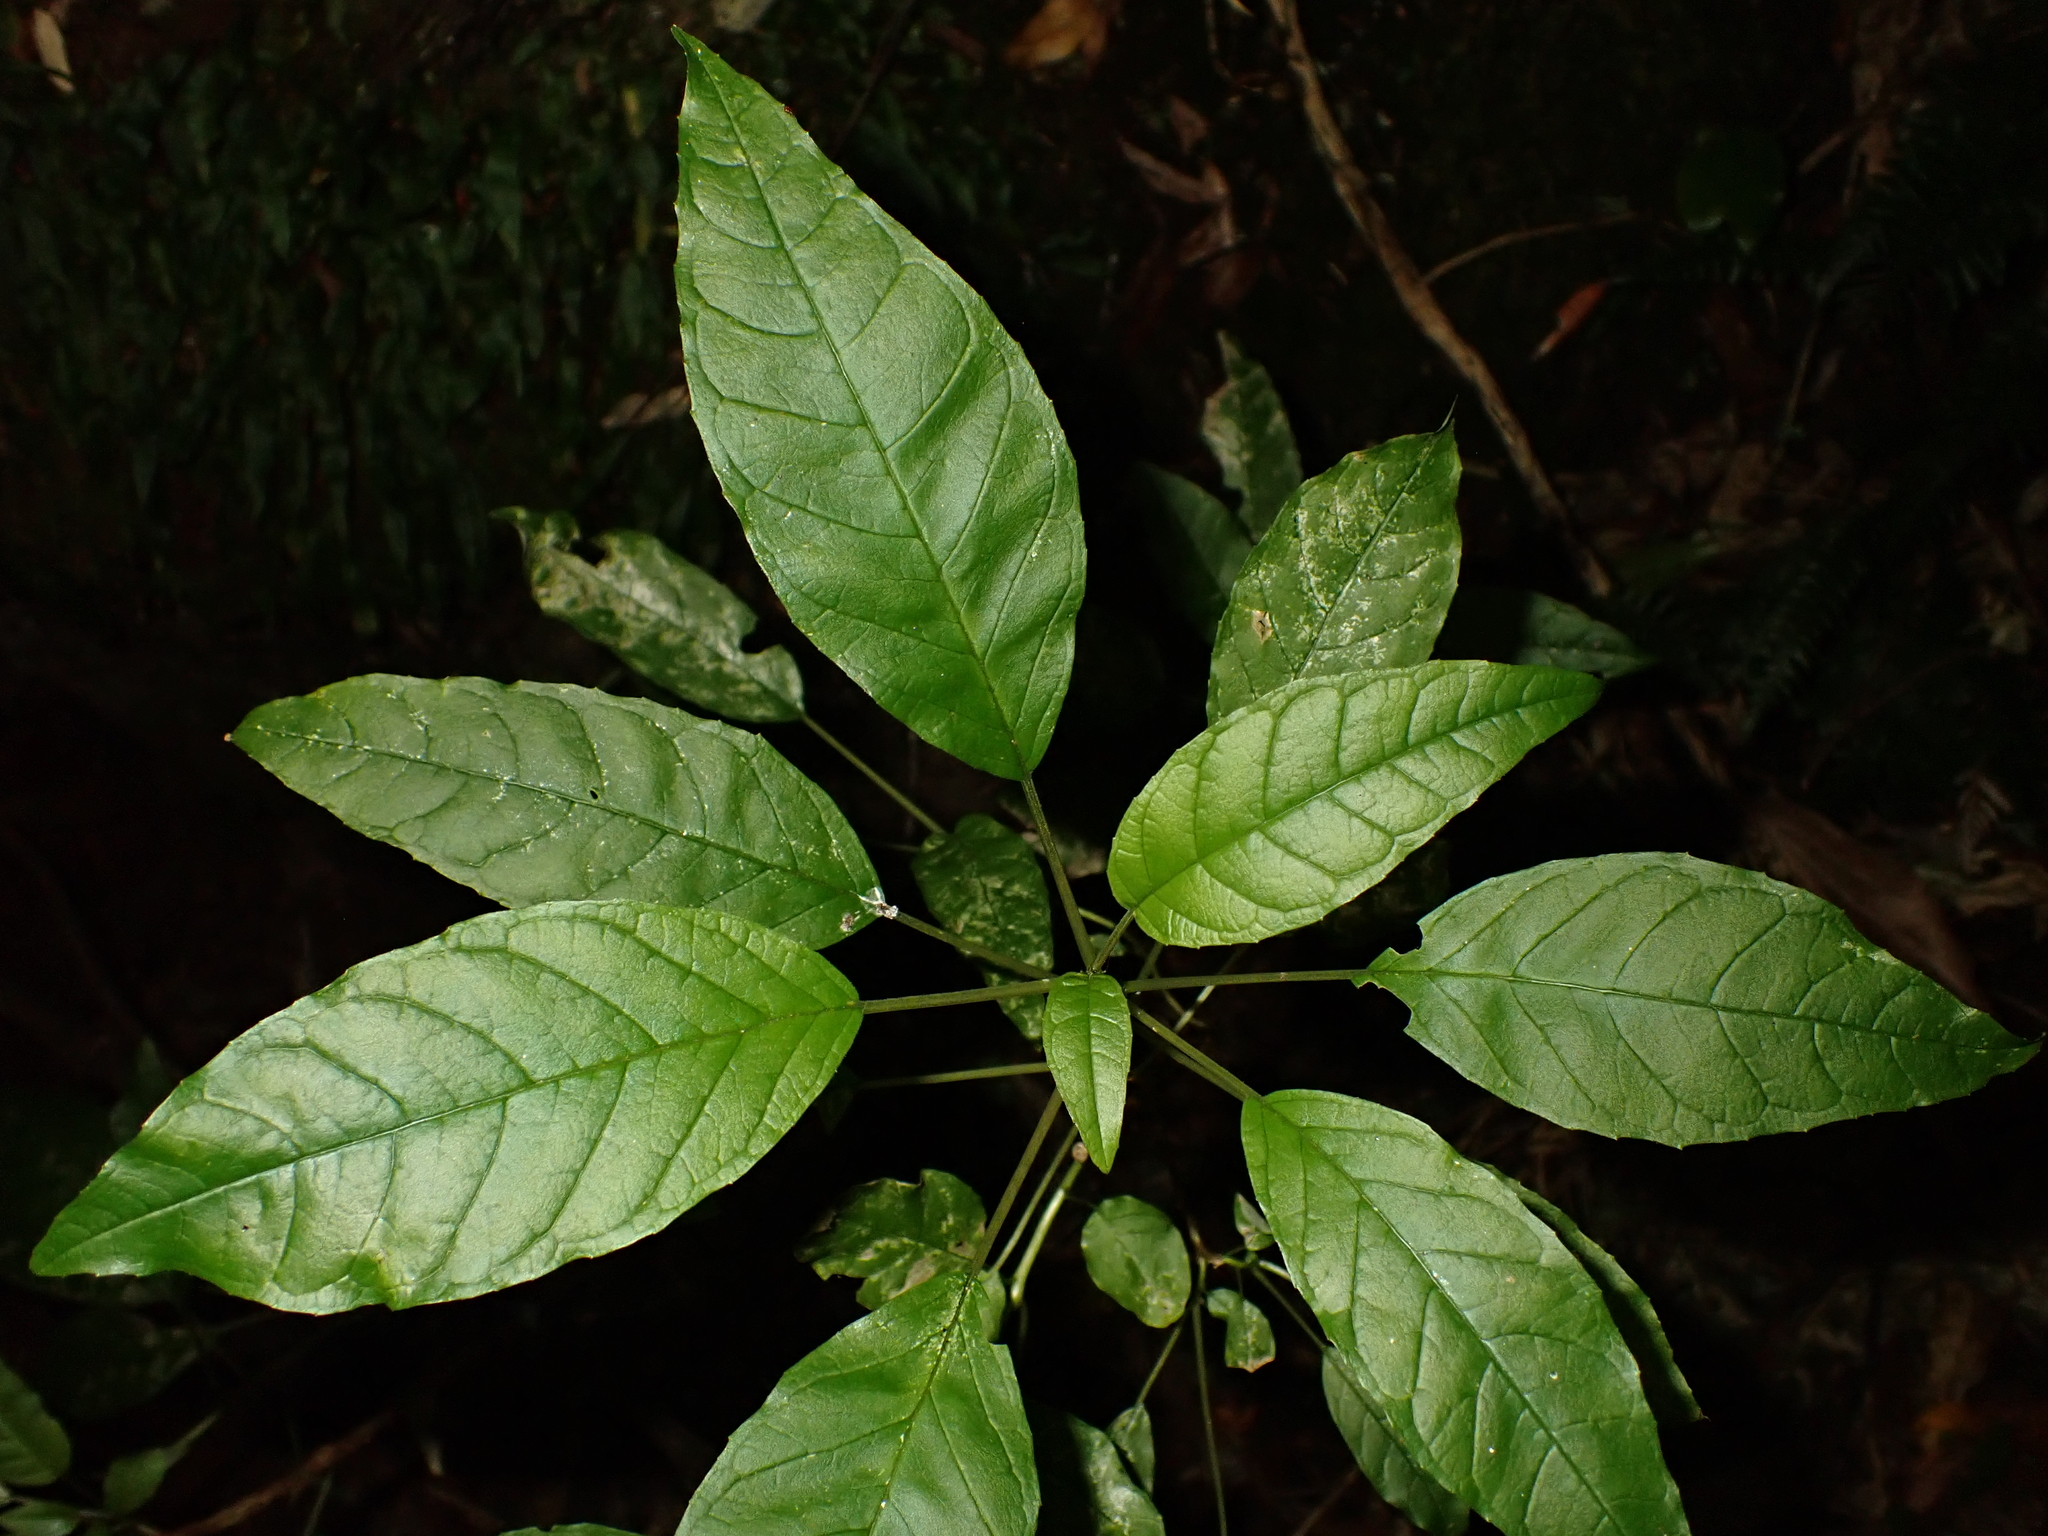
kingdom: Plantae
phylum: Tracheophyta
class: Magnoliopsida
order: Myrtales
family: Onagraceae
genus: Fuchsia
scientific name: Fuchsia excorticata
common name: Tree fuchsia
